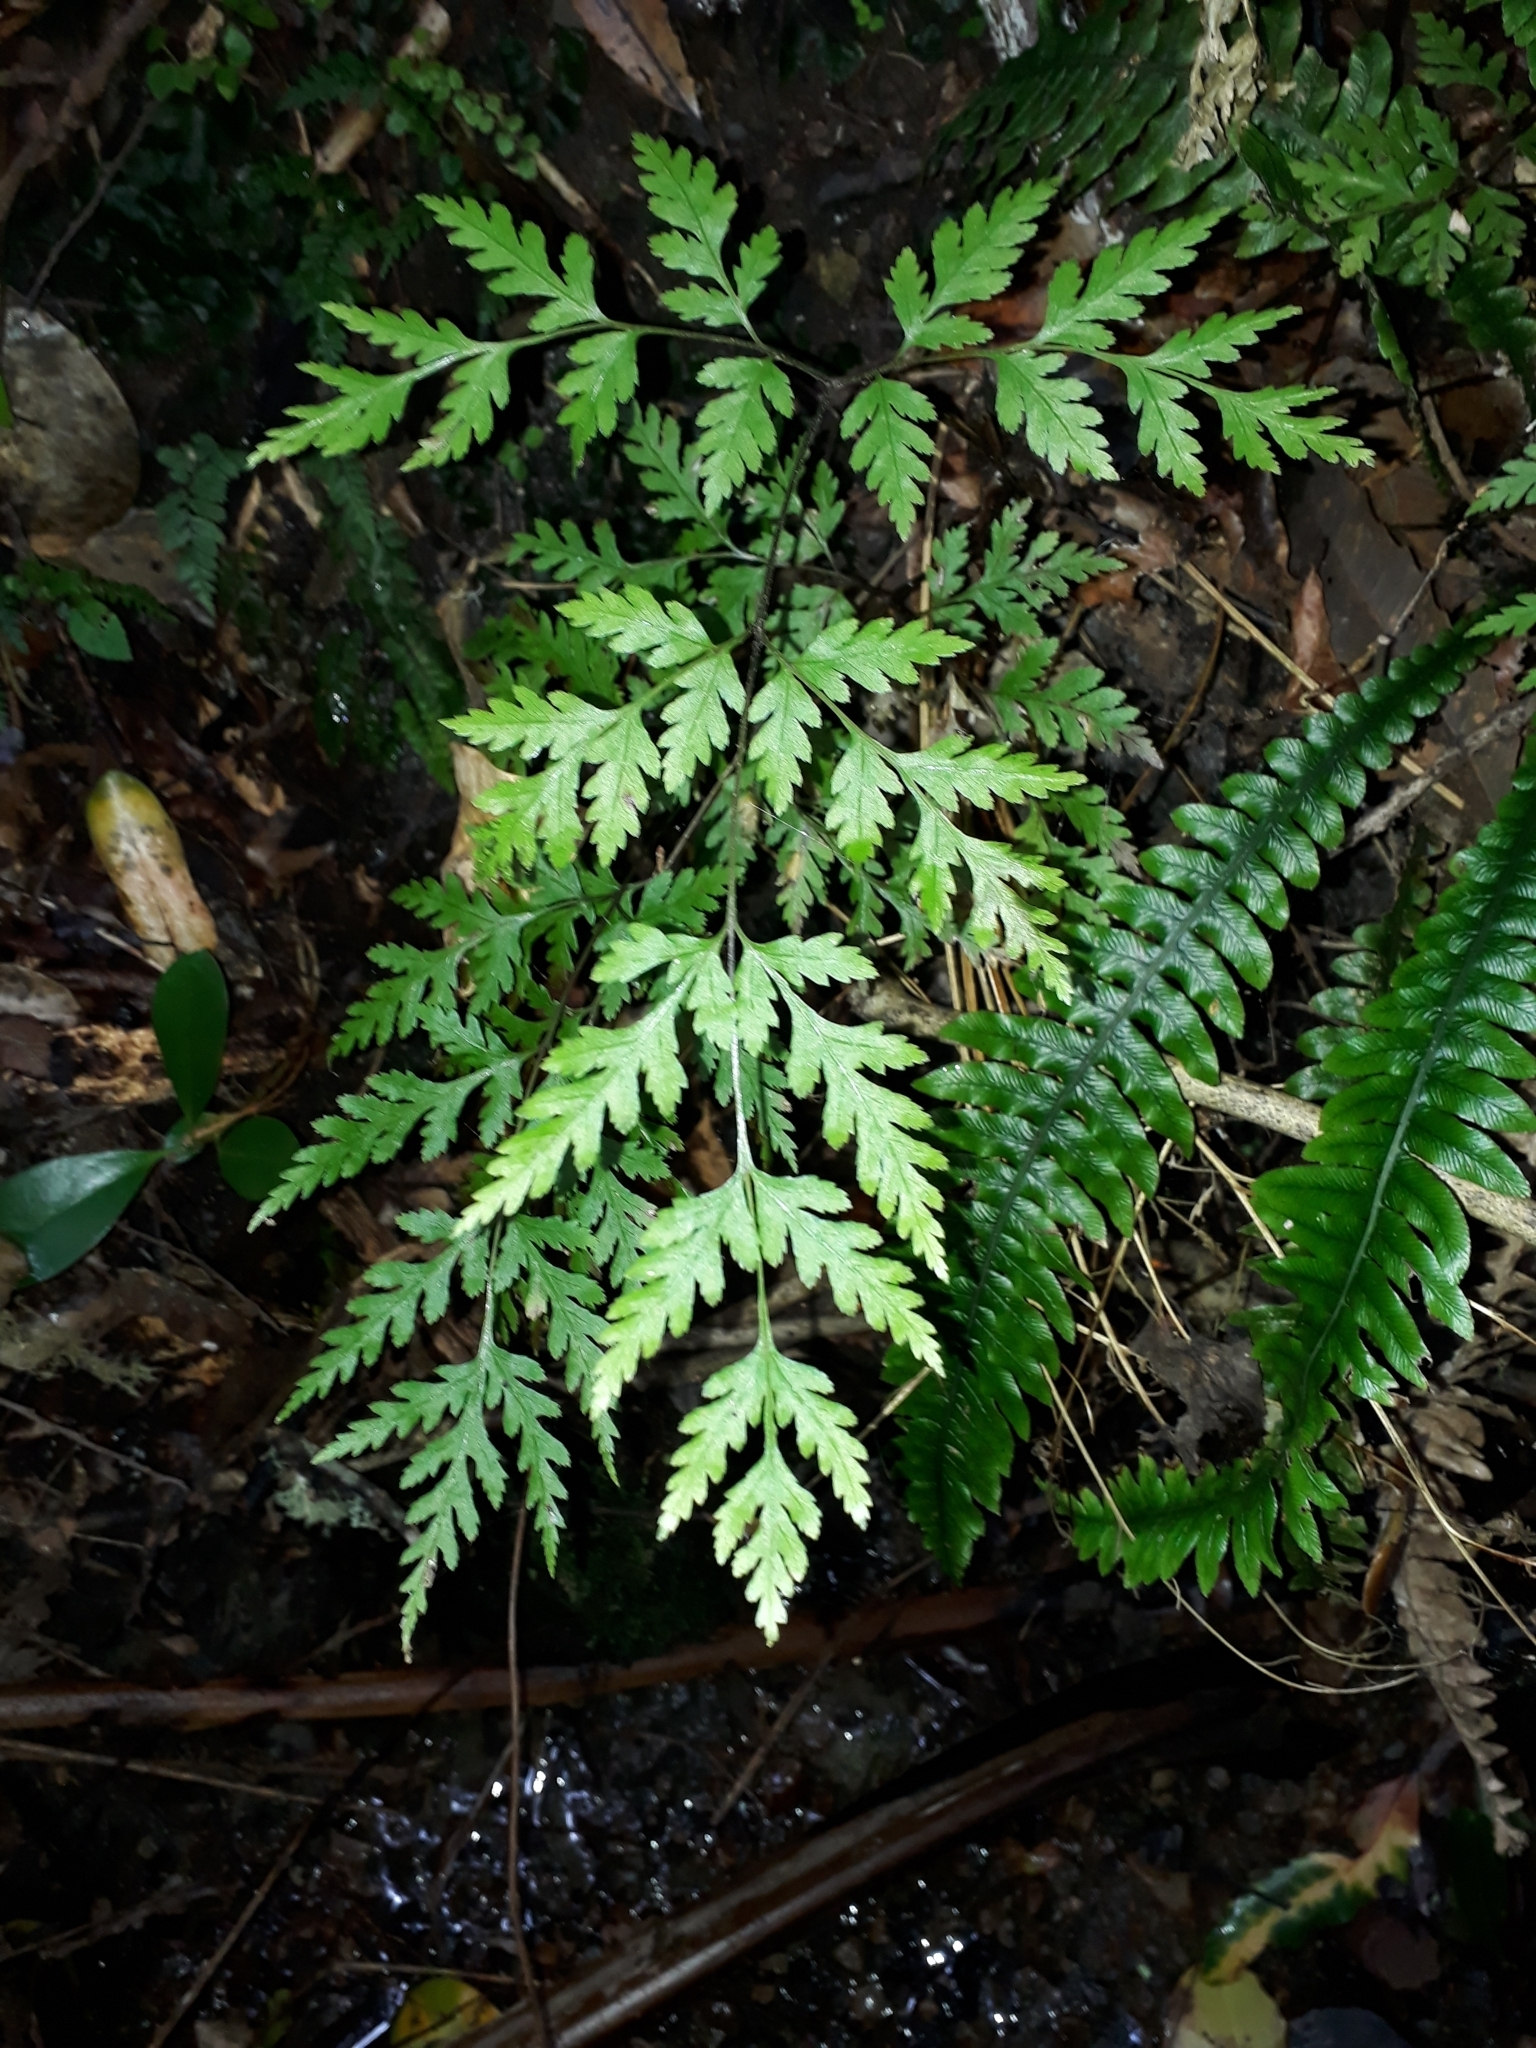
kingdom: Plantae
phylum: Tracheophyta
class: Polypodiopsida
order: Polypodiales
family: Pteridaceae
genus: Pteris
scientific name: Pteris macilenta
